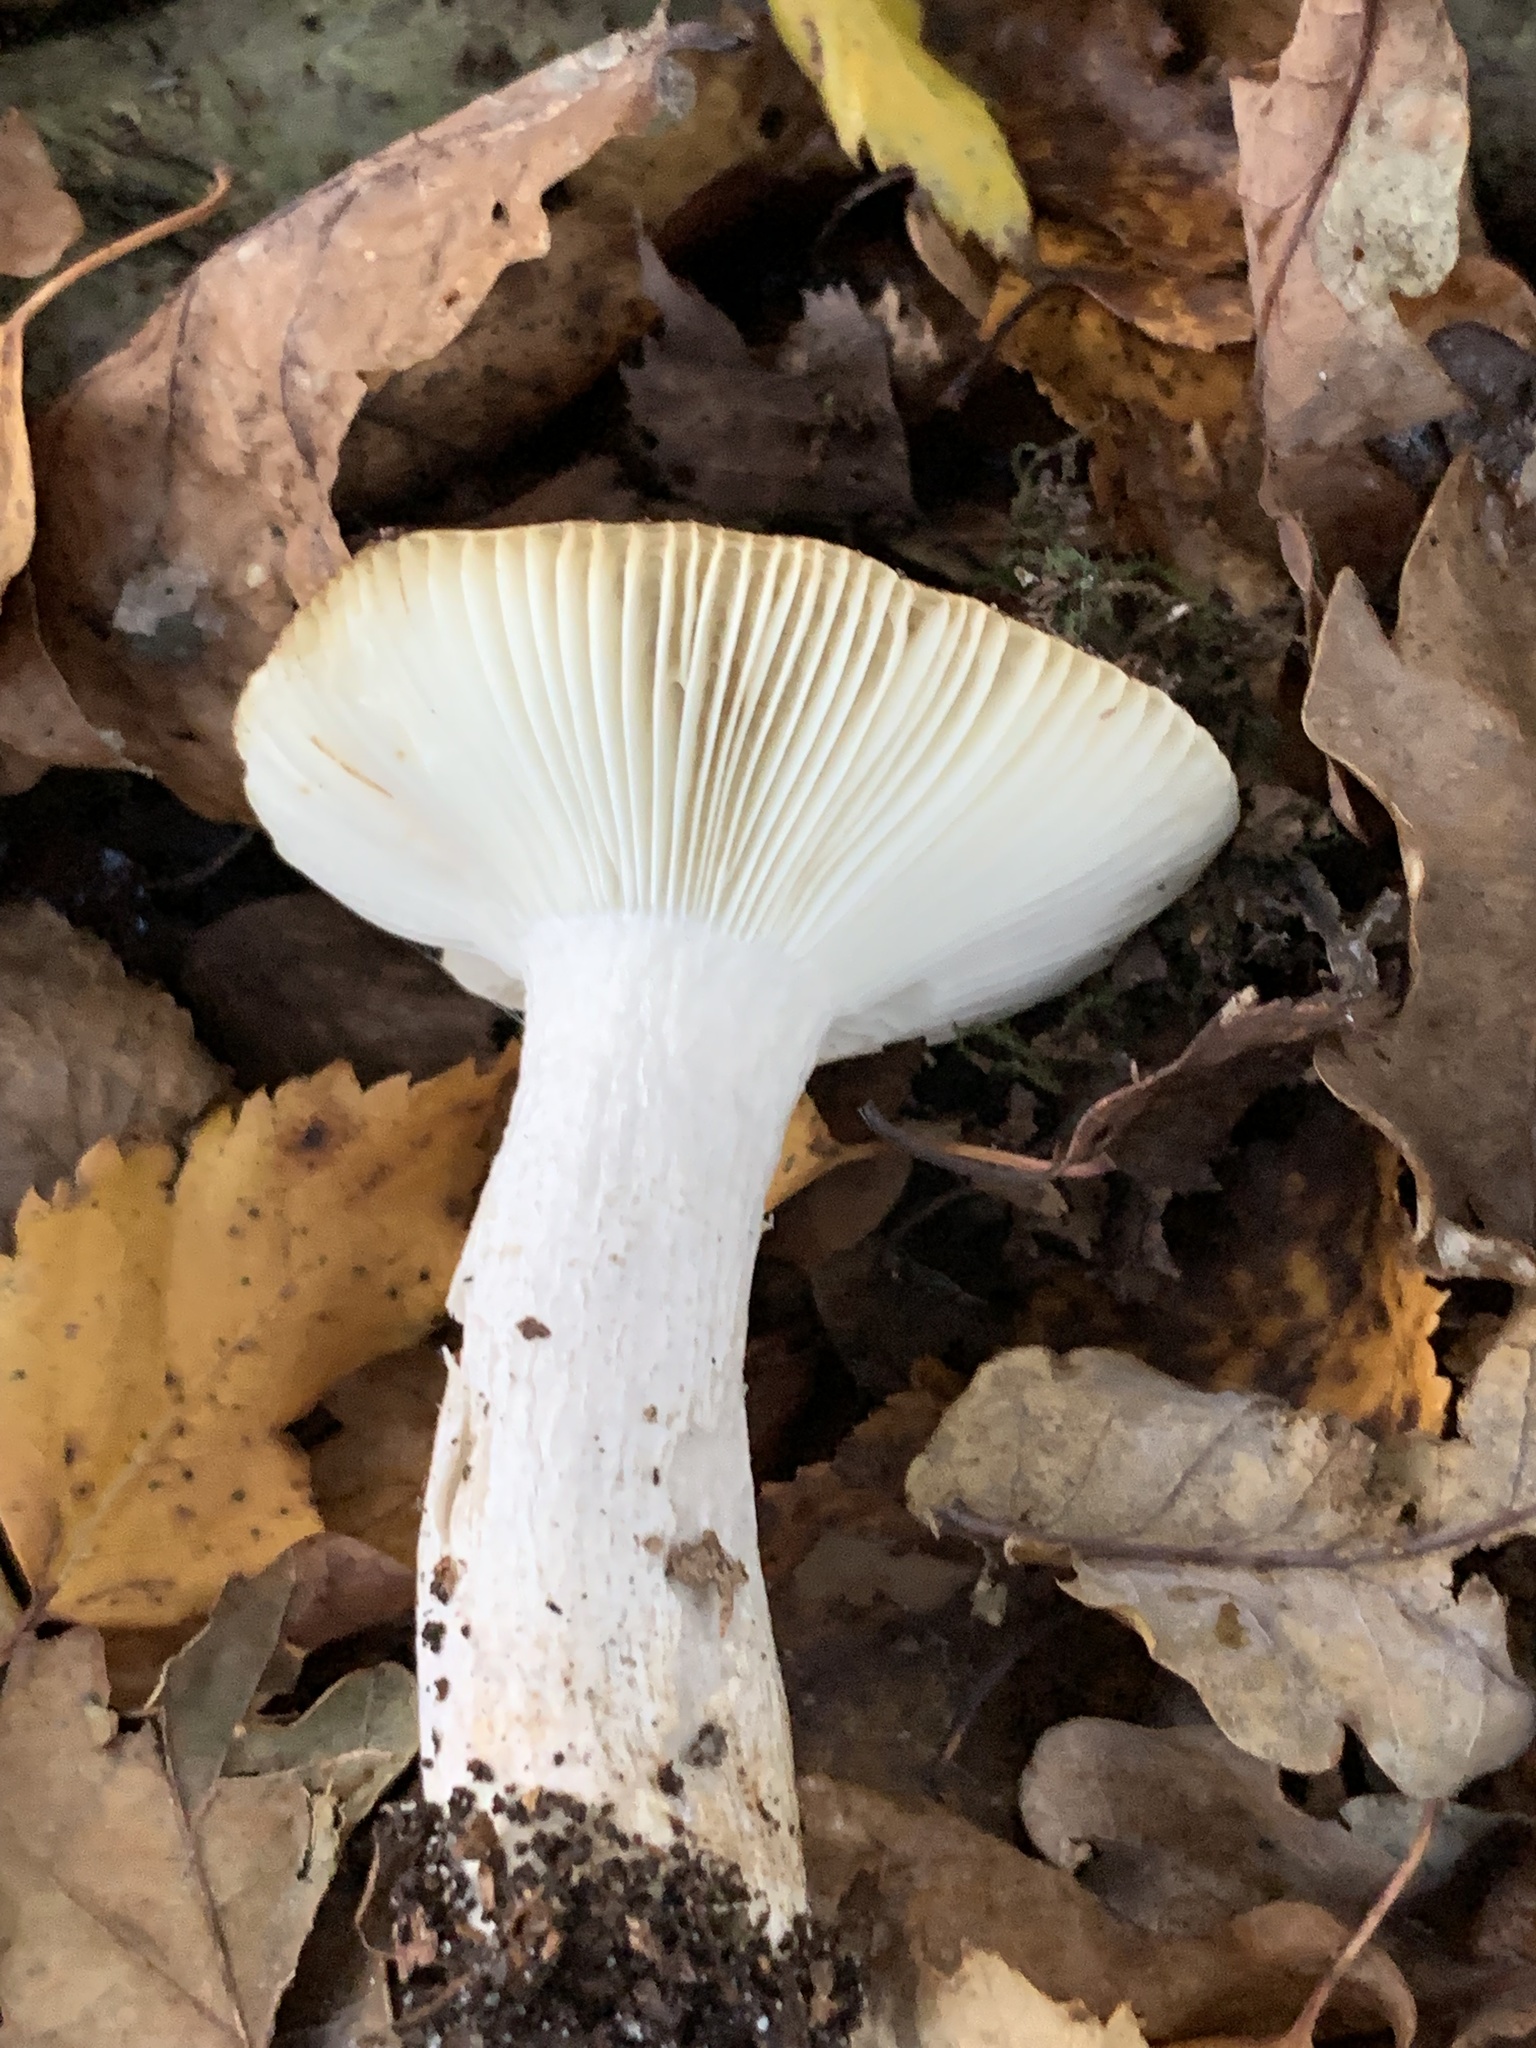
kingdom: Fungi
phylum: Basidiomycota
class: Agaricomycetes
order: Russulales
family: Russulaceae
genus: Russula
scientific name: Russula ochroleuca
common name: Common yellow russula
